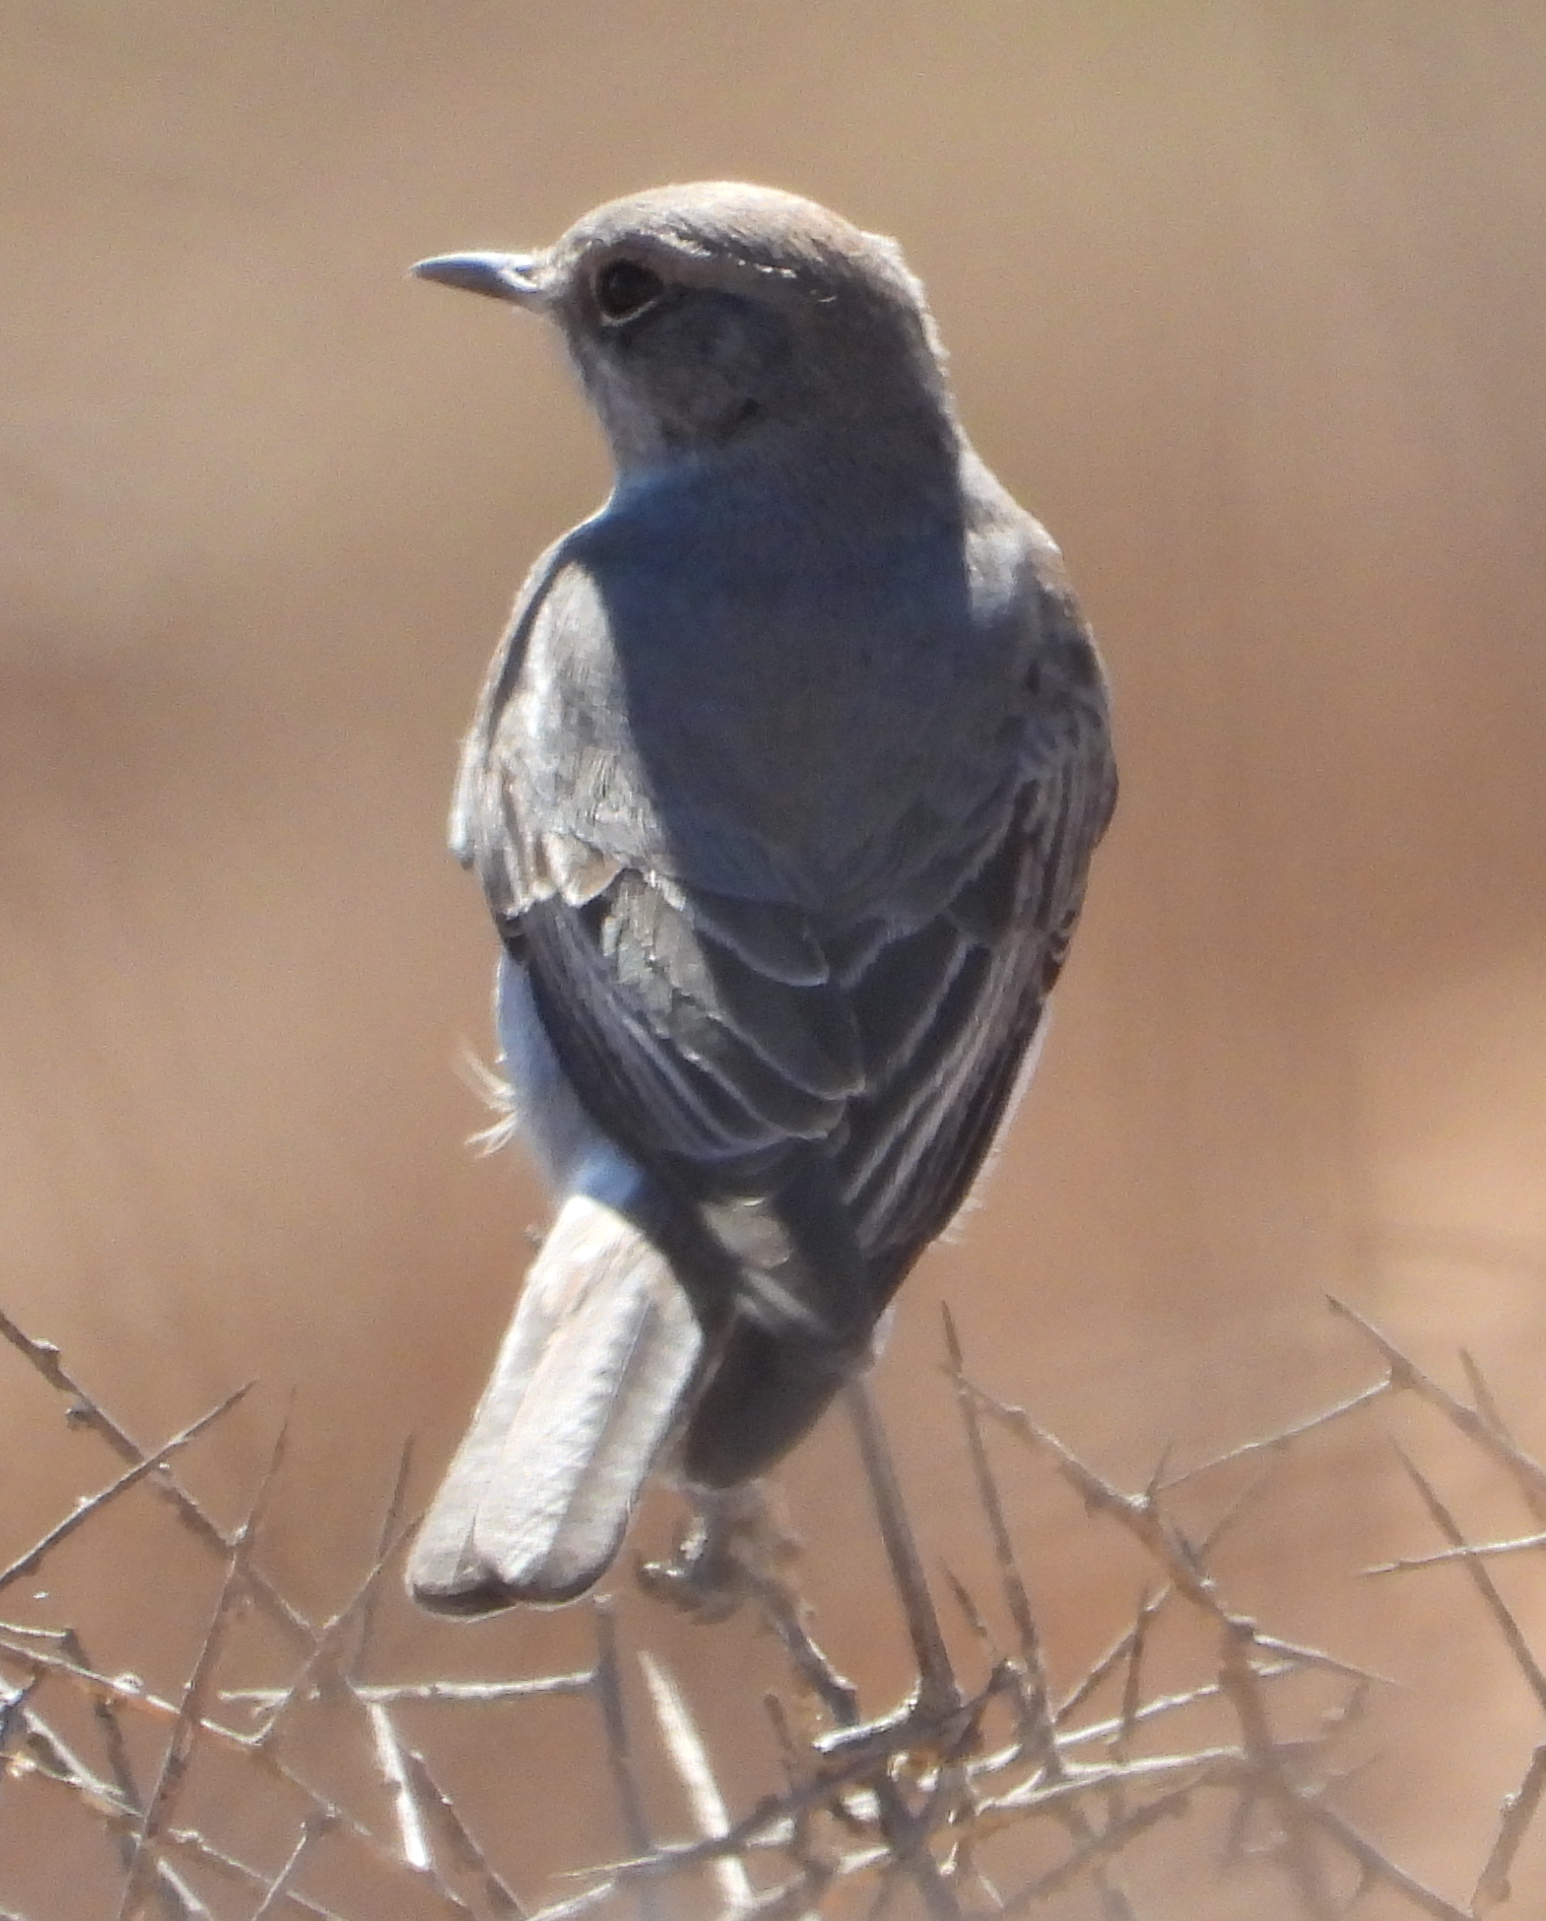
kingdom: Animalia
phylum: Chordata
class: Aves
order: Passeriformes
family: Muscicapidae
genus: Emarginata
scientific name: Emarginata schlegelii
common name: Karoo chat
